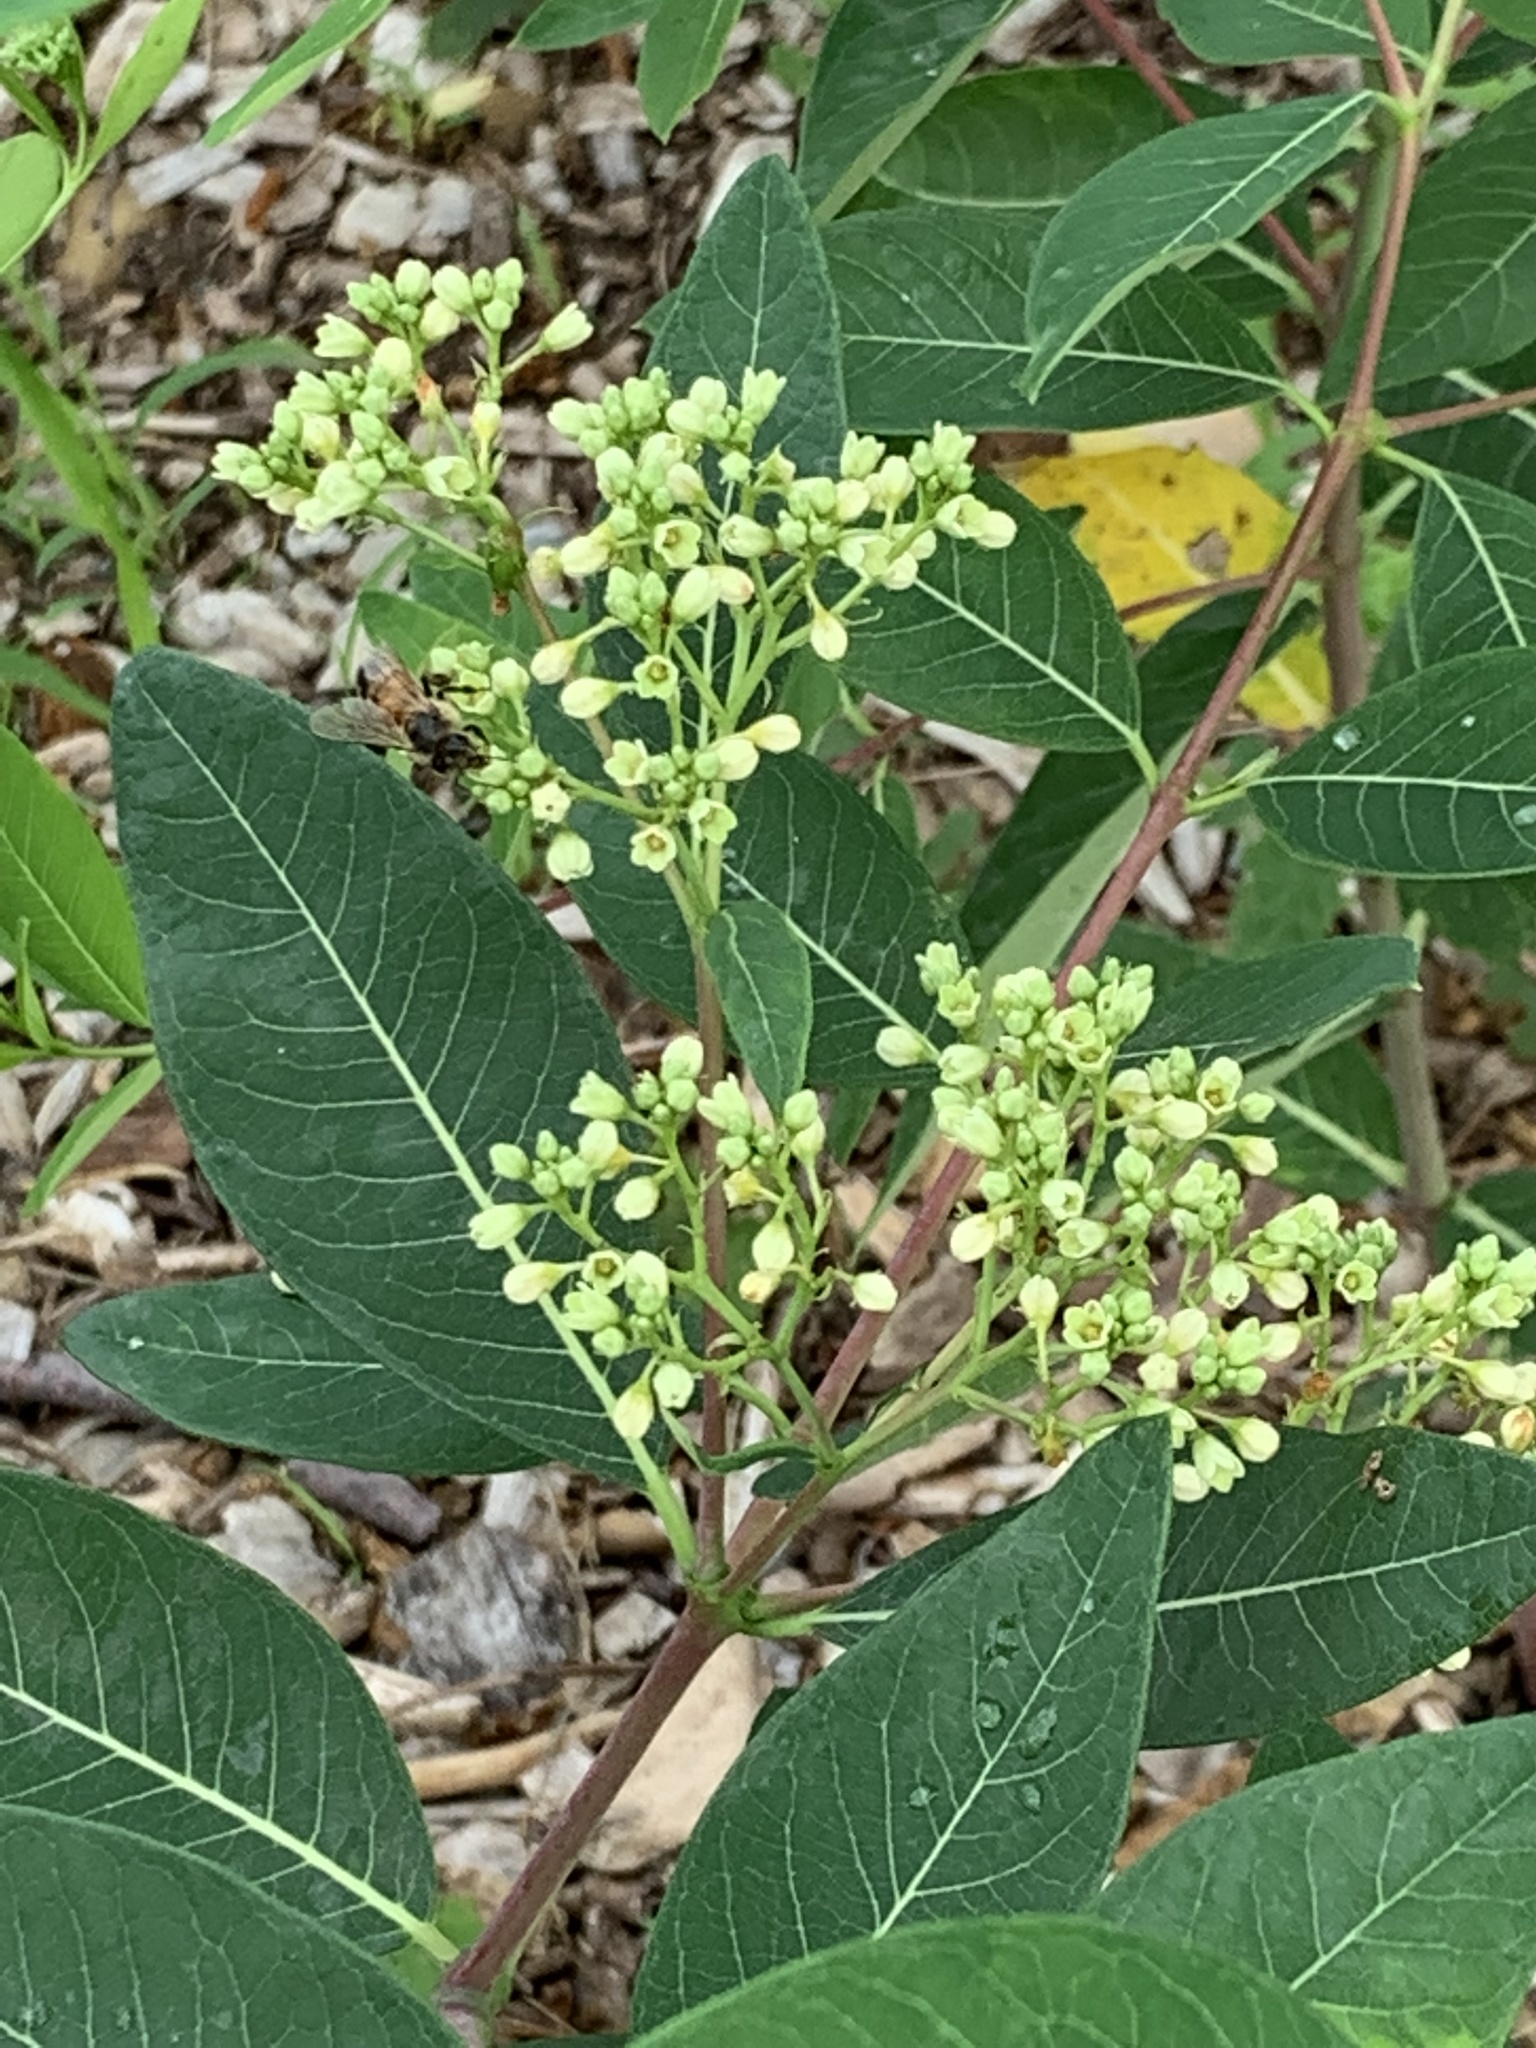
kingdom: Plantae
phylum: Tracheophyta
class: Magnoliopsida
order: Gentianales
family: Apocynaceae
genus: Apocynum
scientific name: Apocynum cannabinum
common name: Hemp dogbane
